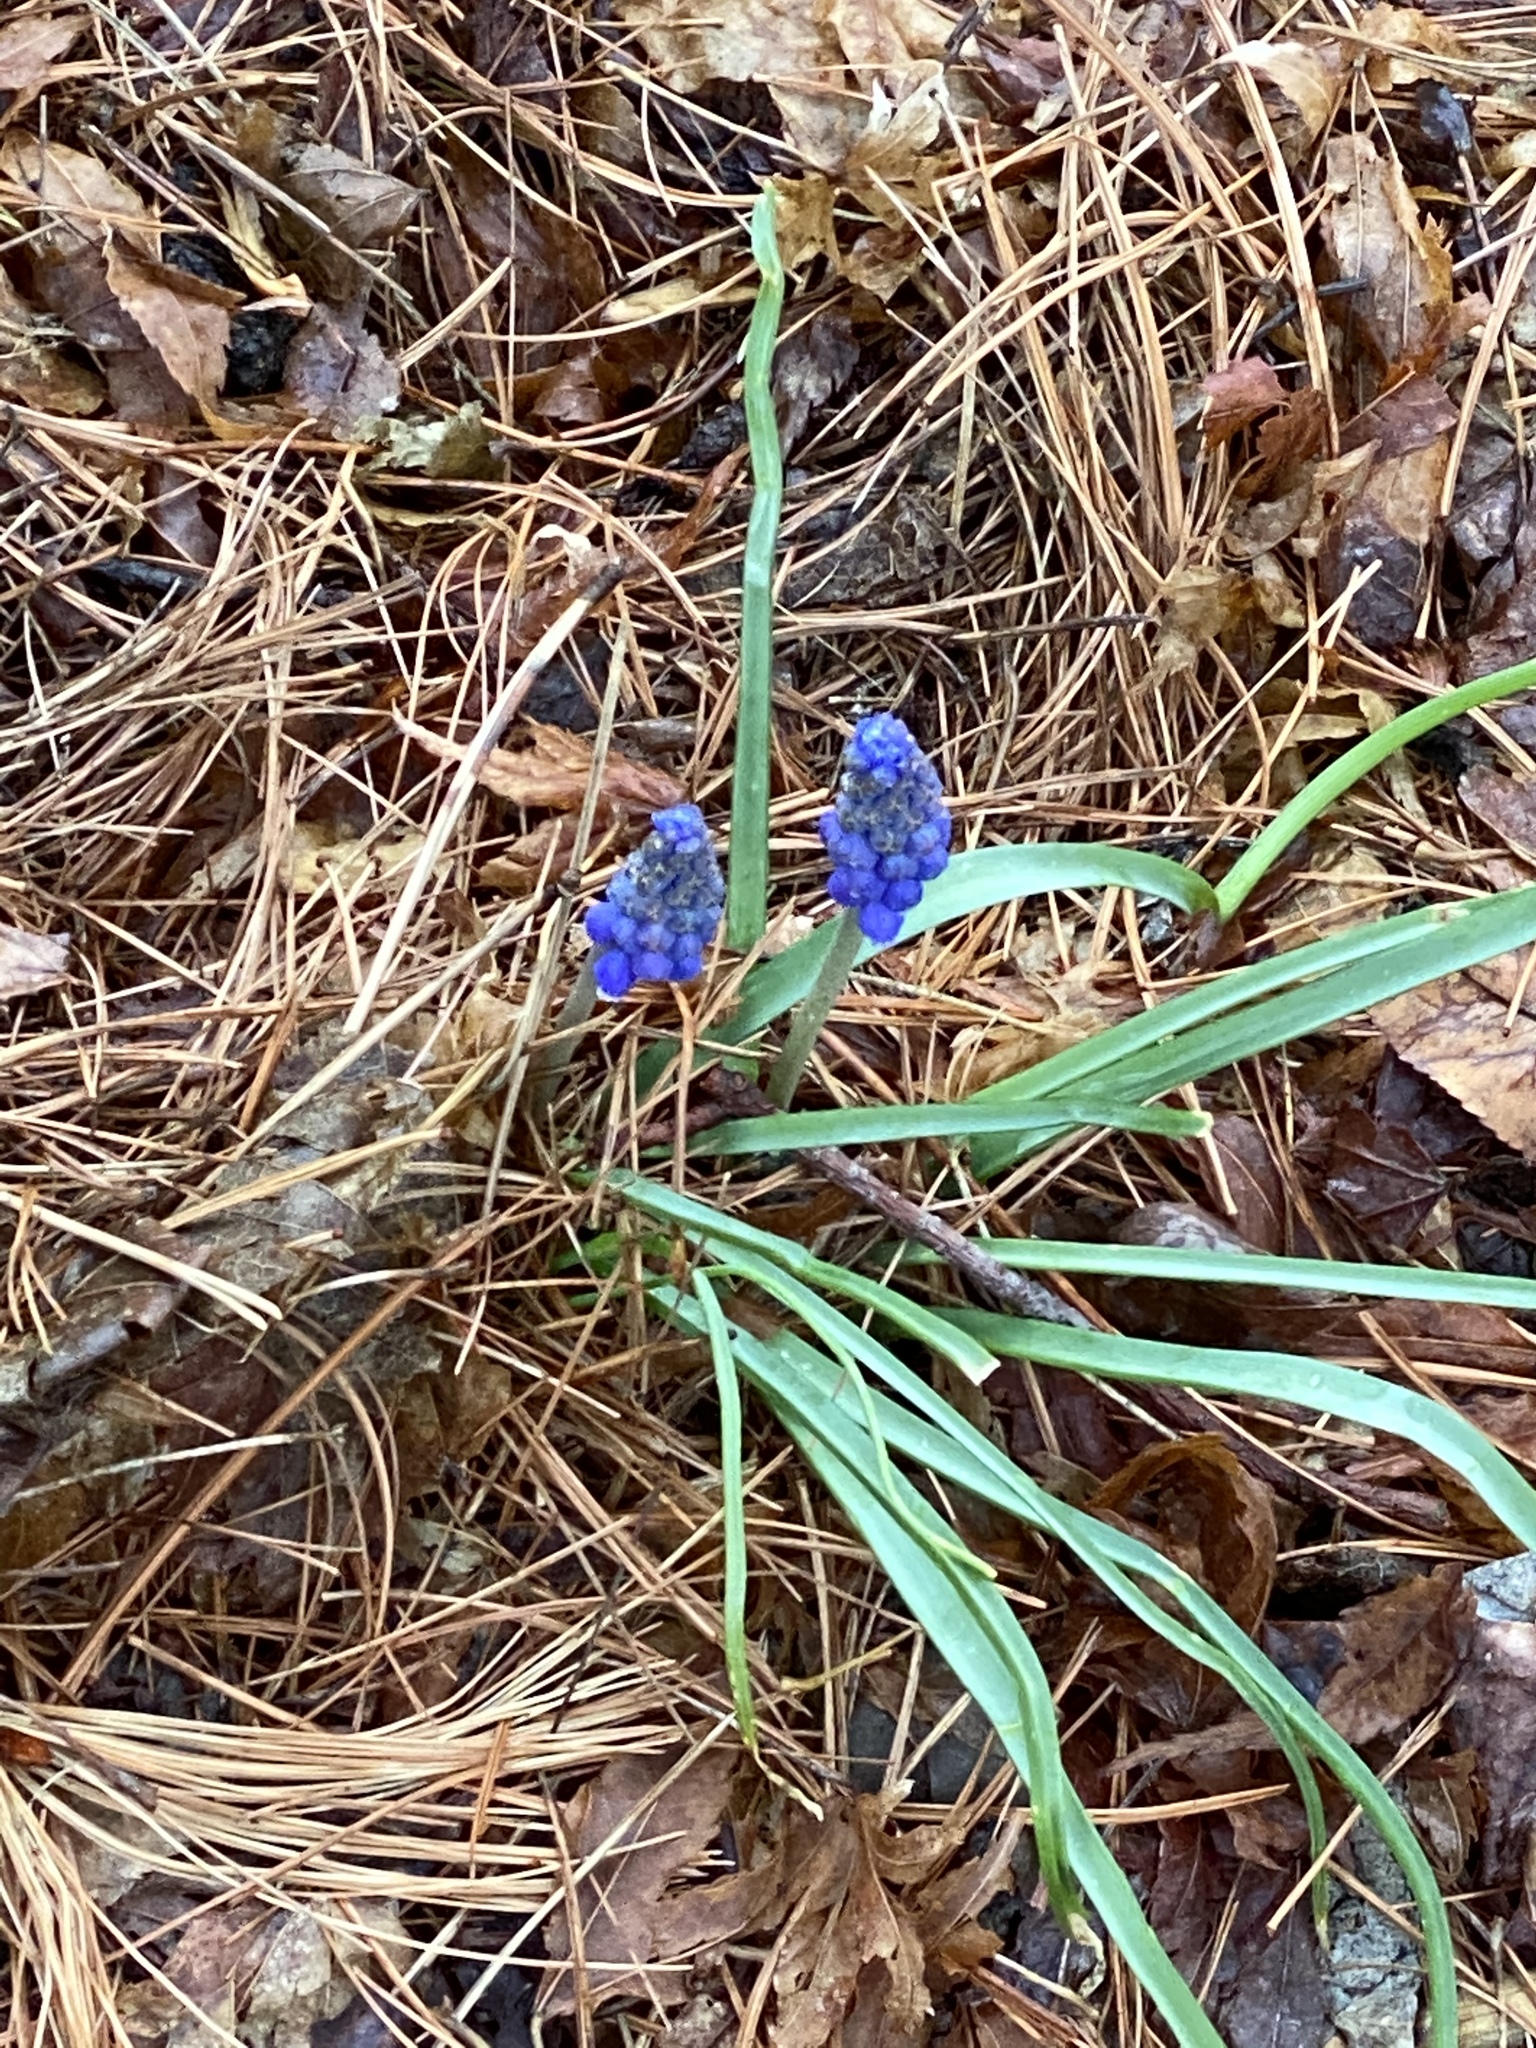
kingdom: Plantae
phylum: Tracheophyta
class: Liliopsida
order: Asparagales
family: Asparagaceae
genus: Muscari
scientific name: Muscari botryoides
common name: Compact grape-hyacinth
